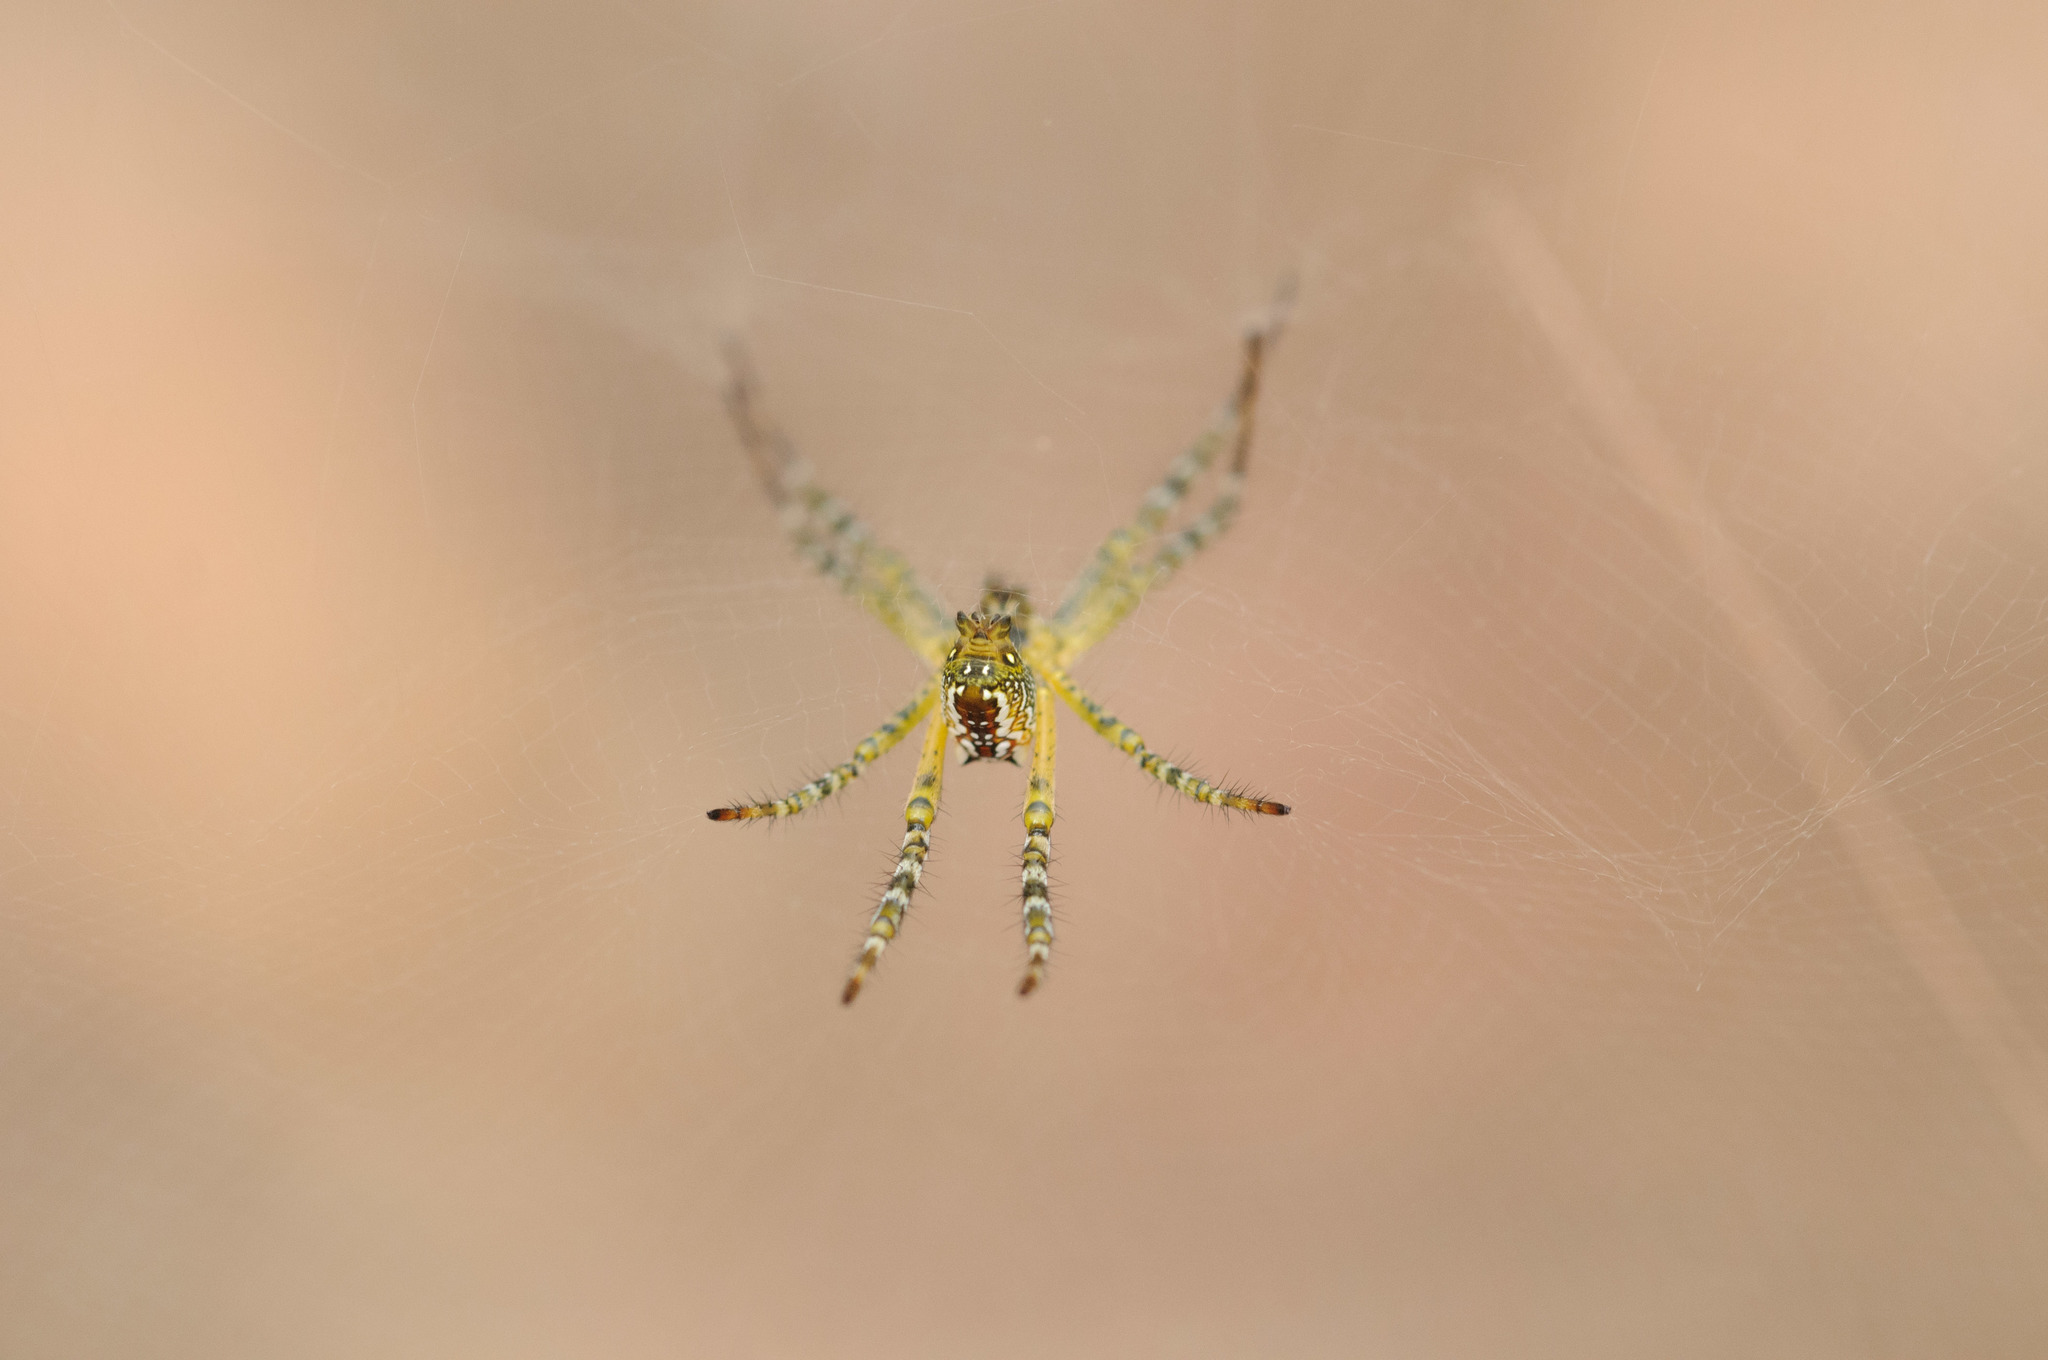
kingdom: Chromista
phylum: Ochrophyta
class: Dictyochophyceae
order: Pedinellales
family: Cyrtophoraceae
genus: Cyrtophora
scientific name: Cyrtophora moluccensis
